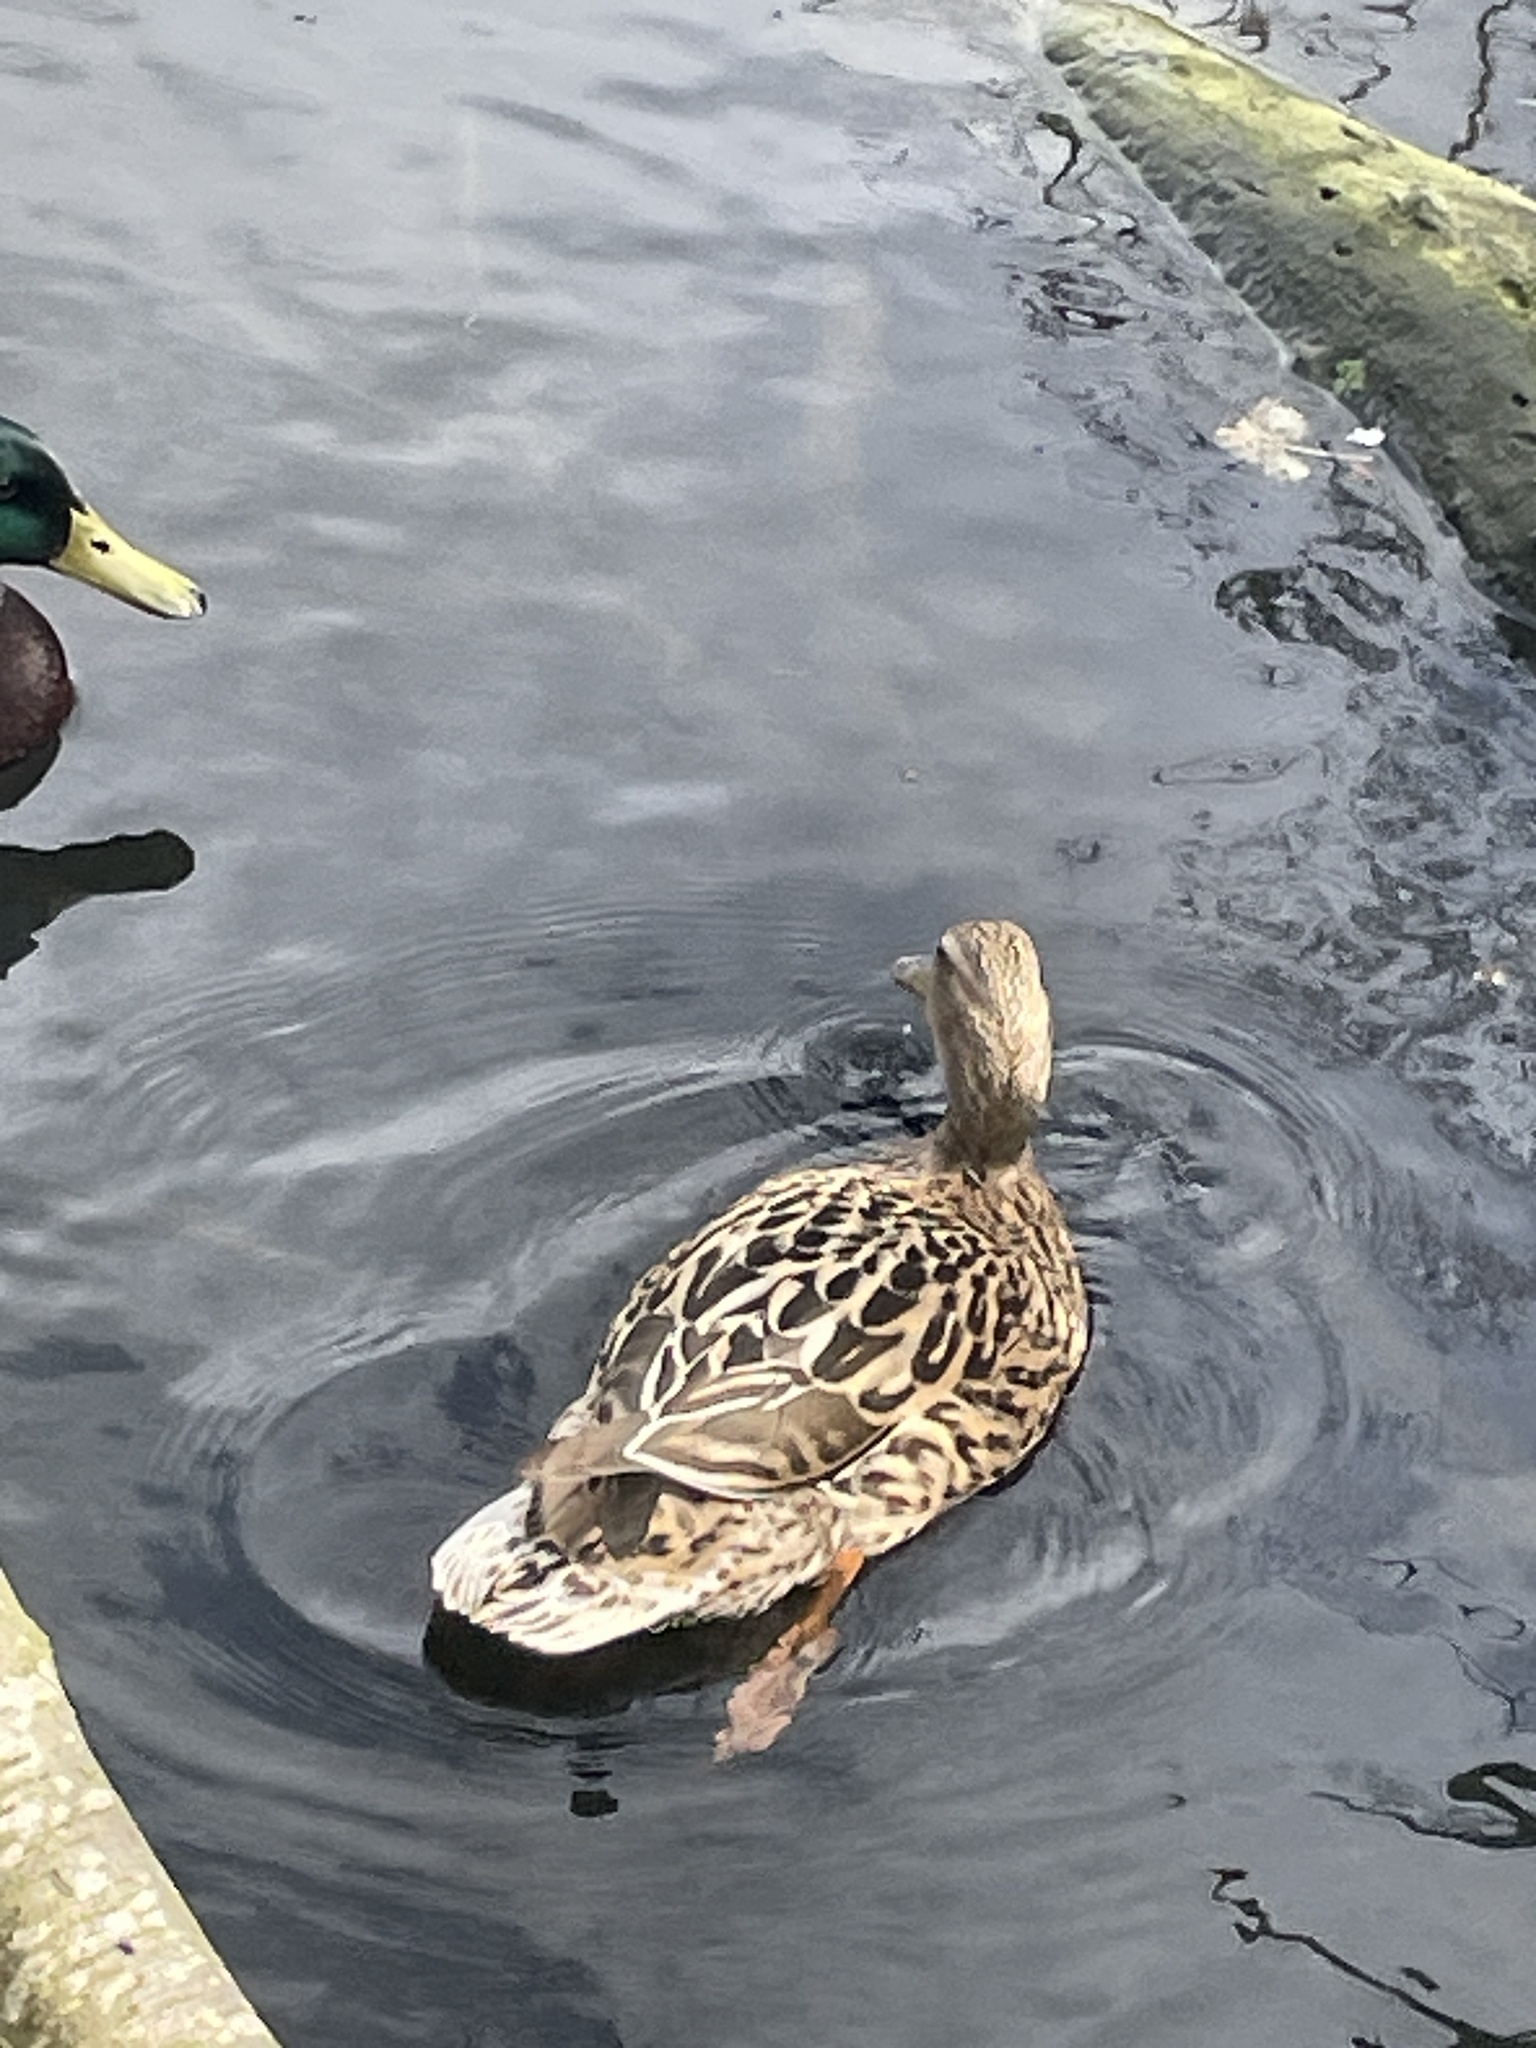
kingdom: Animalia
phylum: Chordata
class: Aves
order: Anseriformes
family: Anatidae
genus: Anas
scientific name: Anas platyrhynchos
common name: Mallard
